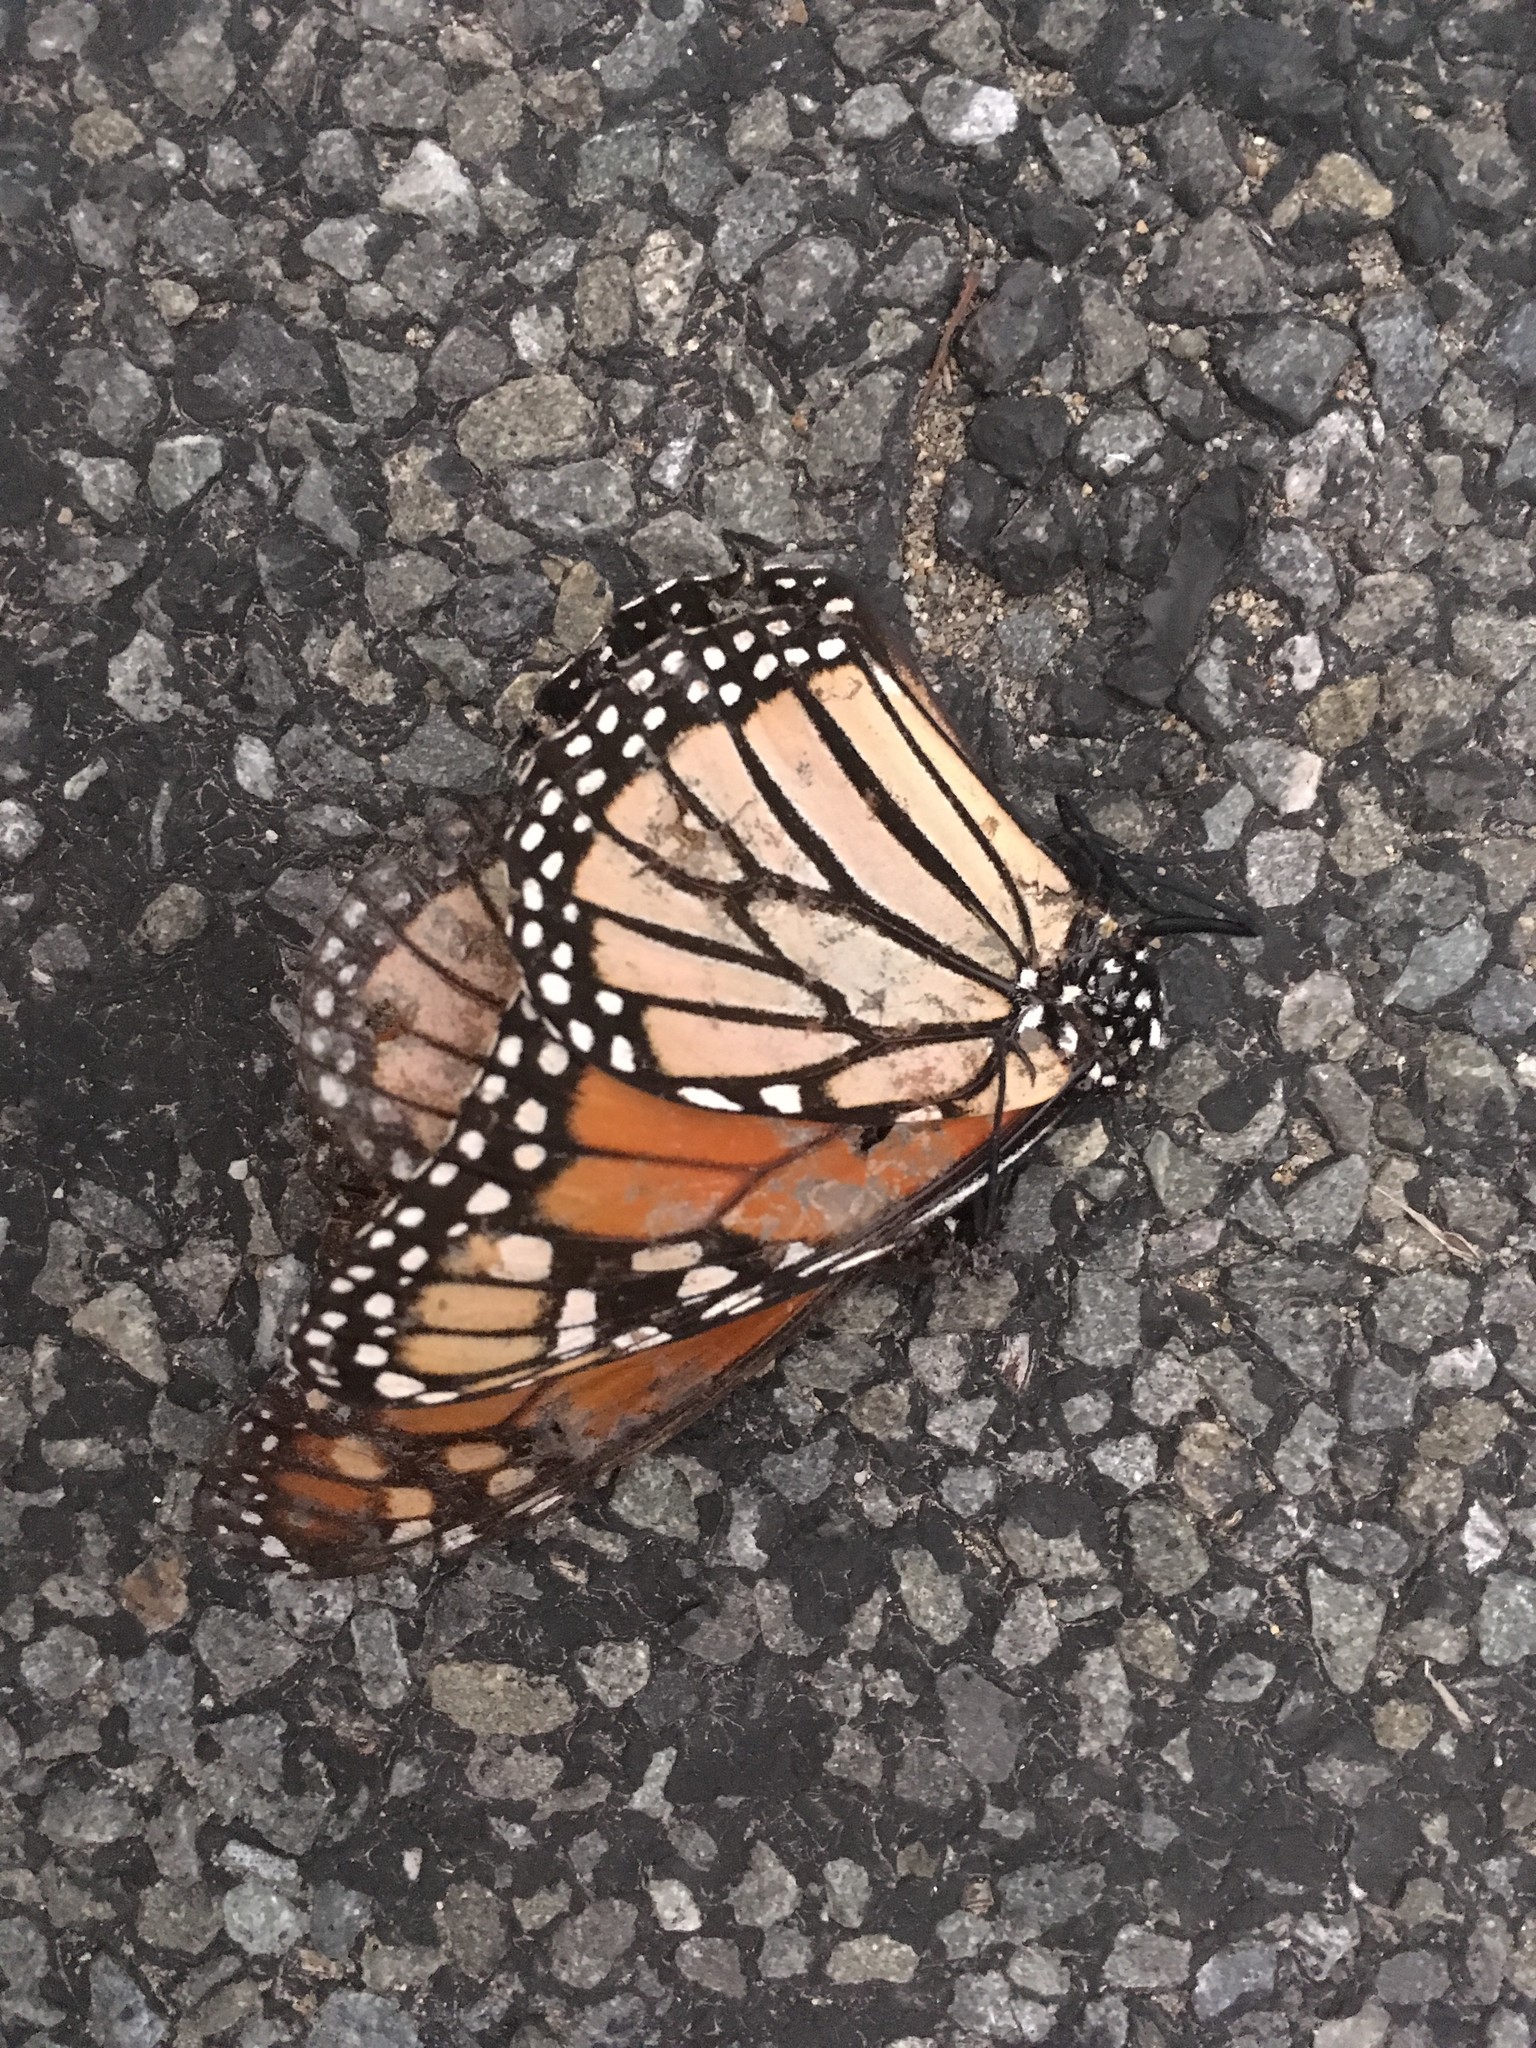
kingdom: Animalia
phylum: Arthropoda
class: Insecta
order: Lepidoptera
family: Nymphalidae
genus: Danaus
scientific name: Danaus plexippus
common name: Monarch
